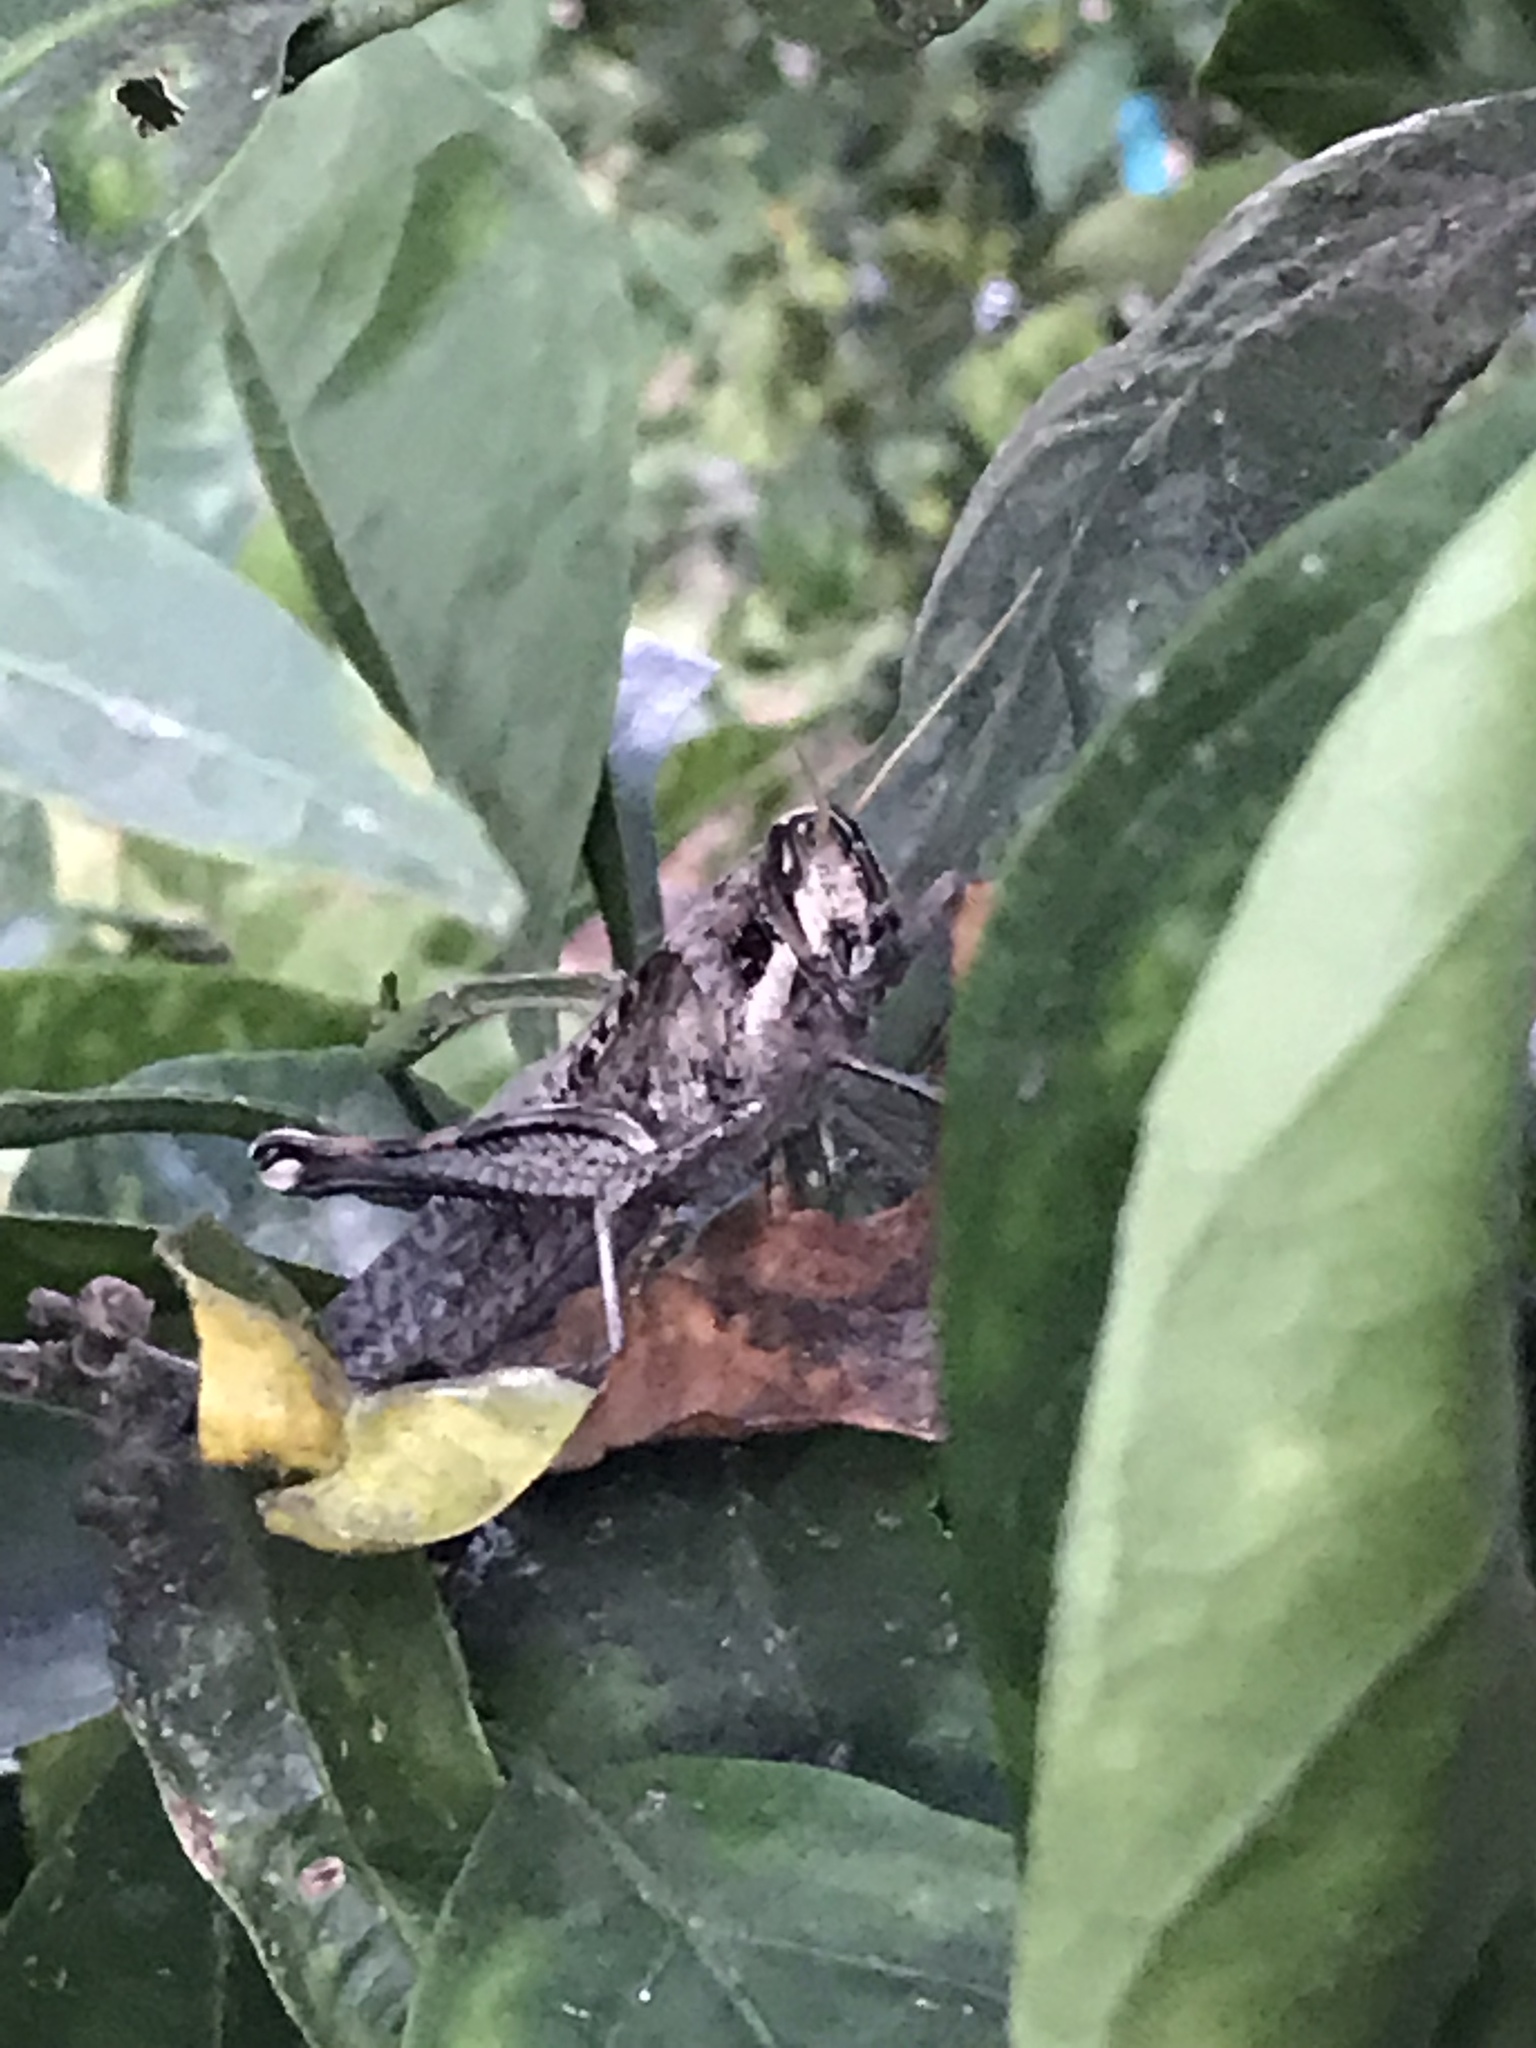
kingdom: Animalia
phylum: Arthropoda
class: Insecta
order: Orthoptera
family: Acrididae
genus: Schistocerca
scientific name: Schistocerca nitens
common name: Vagrant grasshopper
